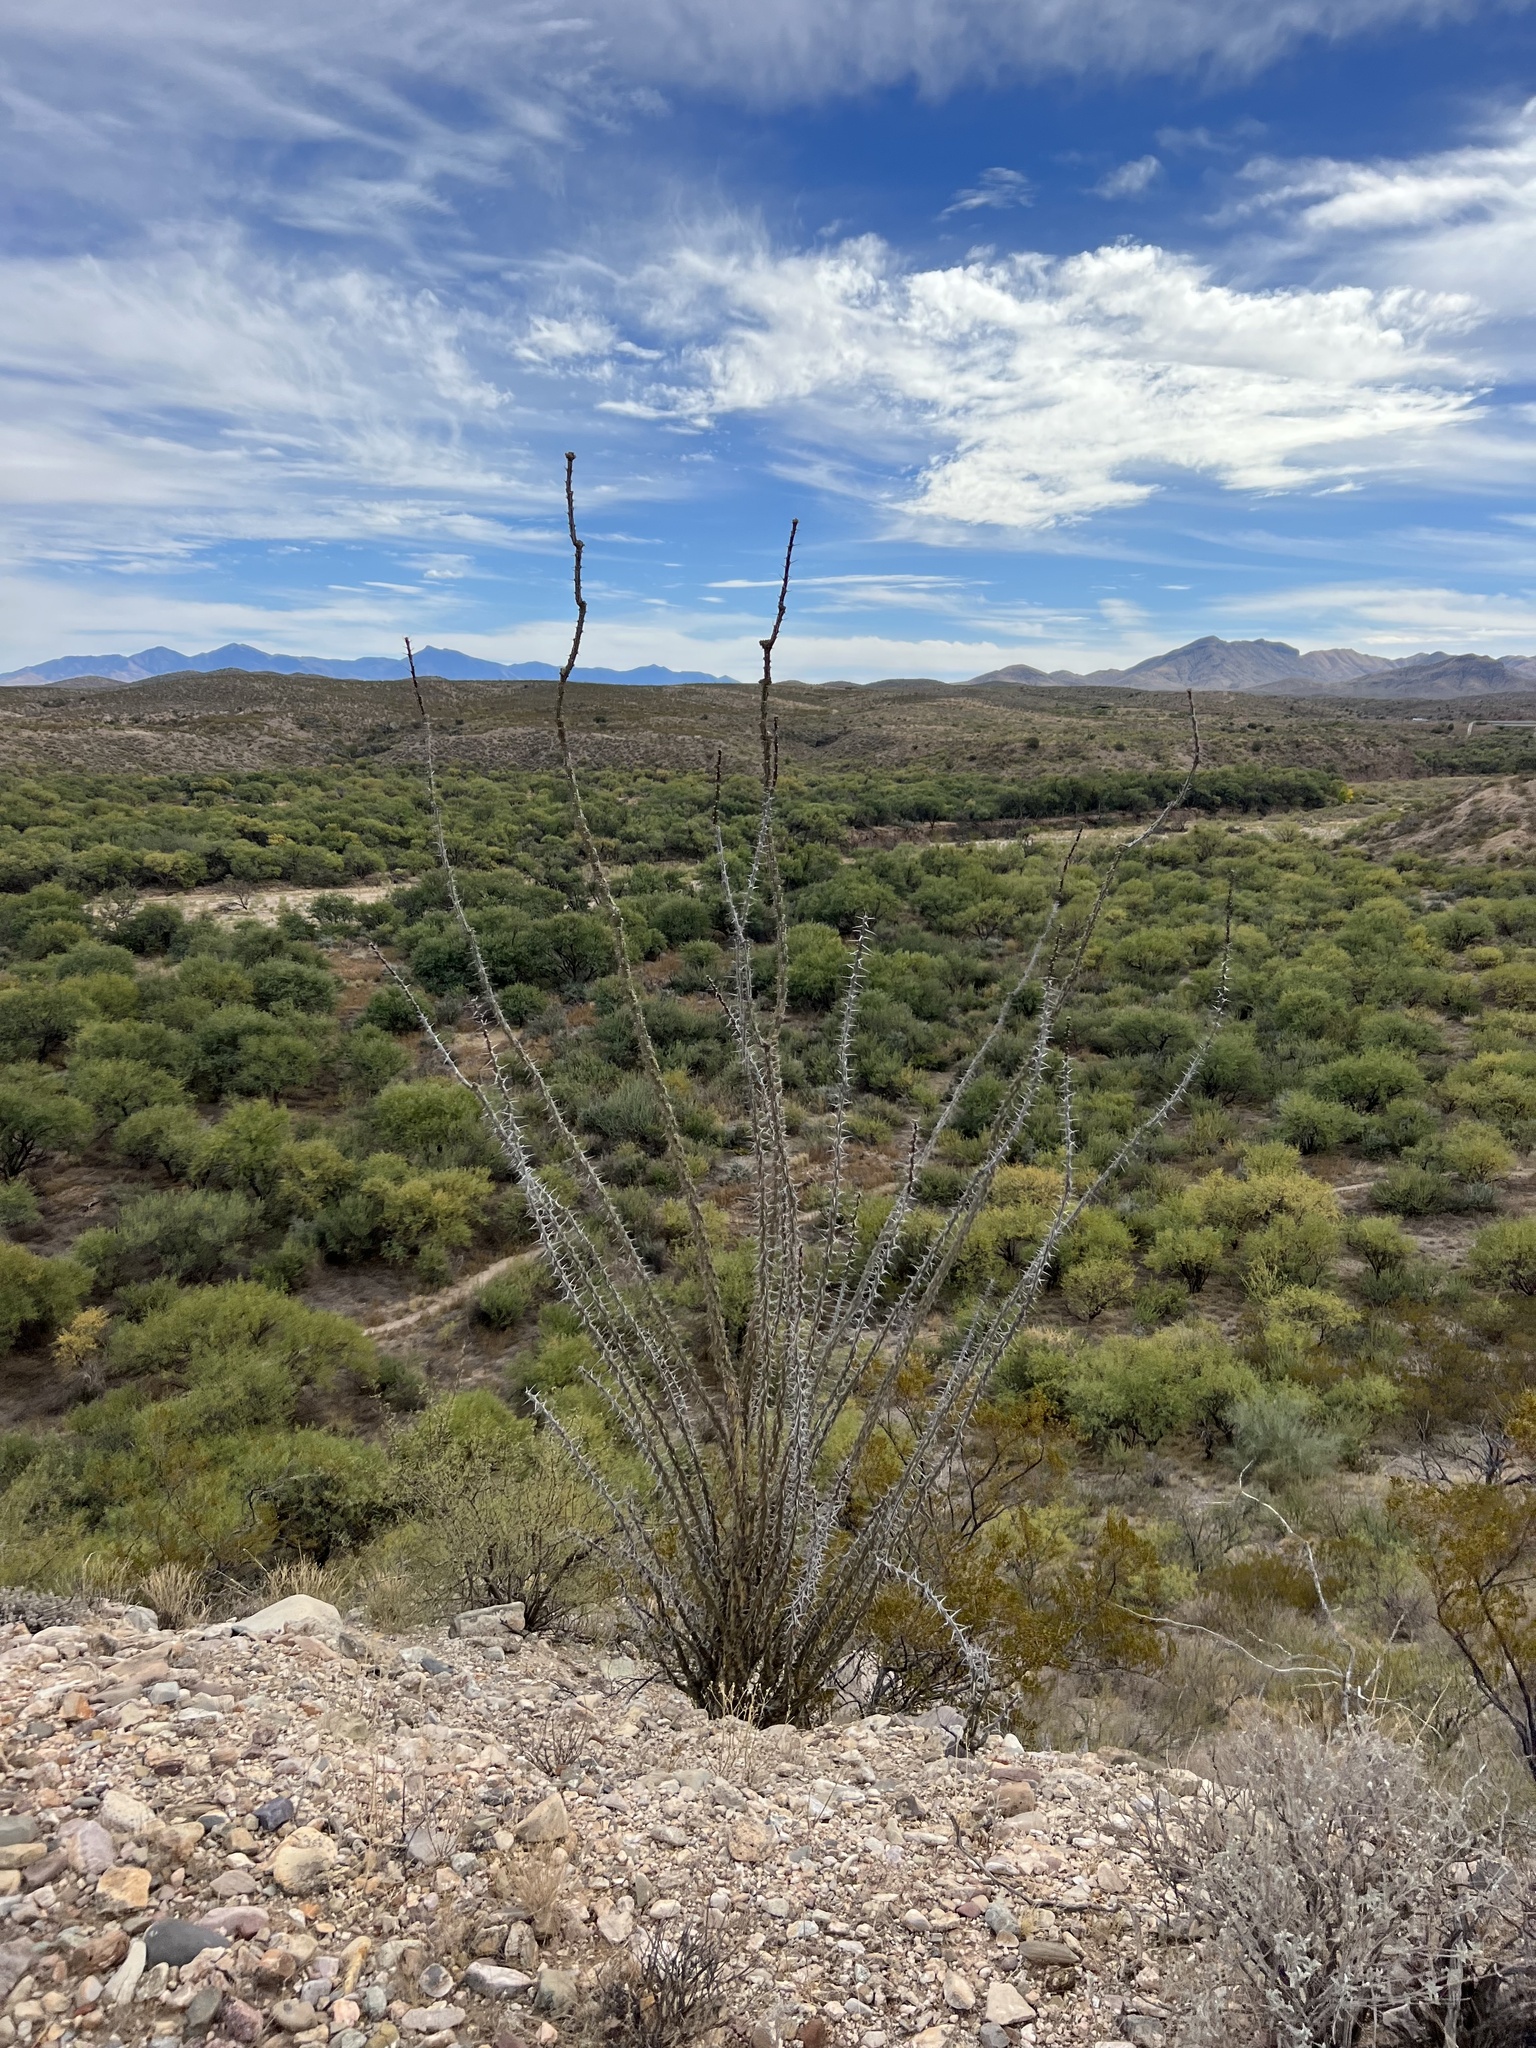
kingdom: Plantae
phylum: Tracheophyta
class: Magnoliopsida
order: Ericales
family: Fouquieriaceae
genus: Fouquieria
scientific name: Fouquieria splendens
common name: Vine-cactus
